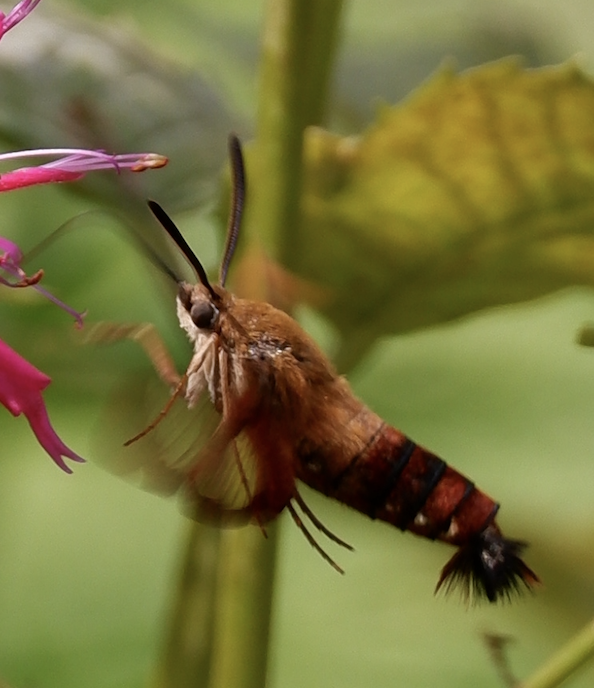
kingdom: Animalia
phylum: Arthropoda
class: Insecta
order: Lepidoptera
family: Sphingidae
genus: Hemaris
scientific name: Hemaris thysbe
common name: Common clear-wing
